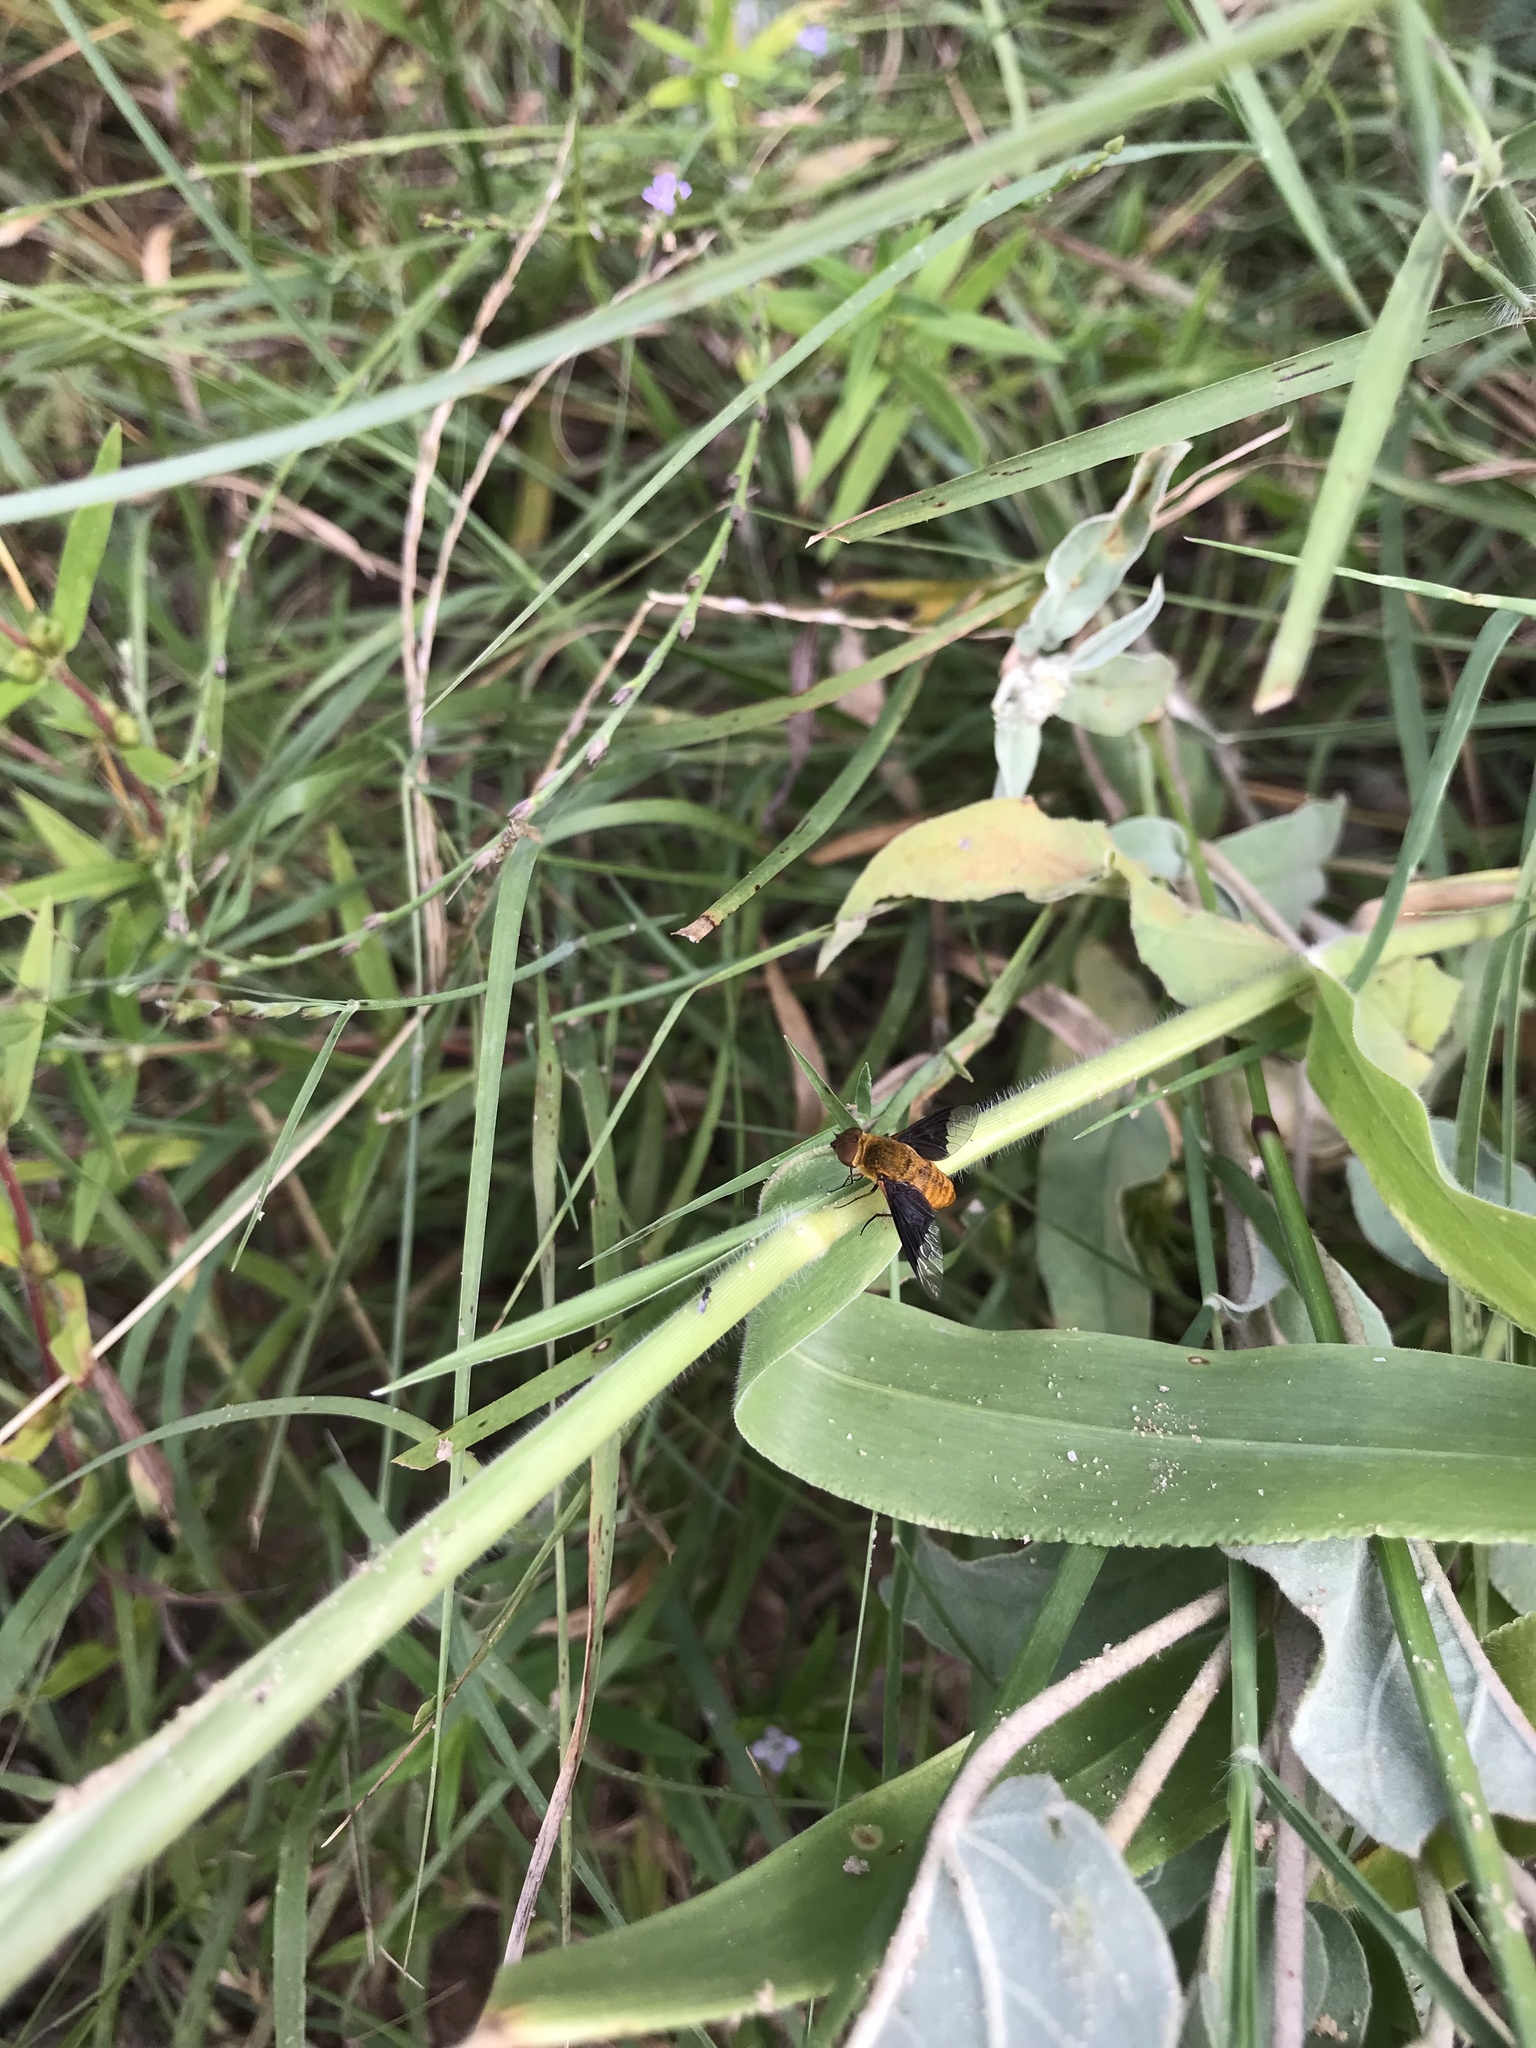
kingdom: Animalia
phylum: Arthropoda
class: Insecta
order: Diptera
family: Bombyliidae
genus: Chrysanthrax
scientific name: Chrysanthrax cypris
